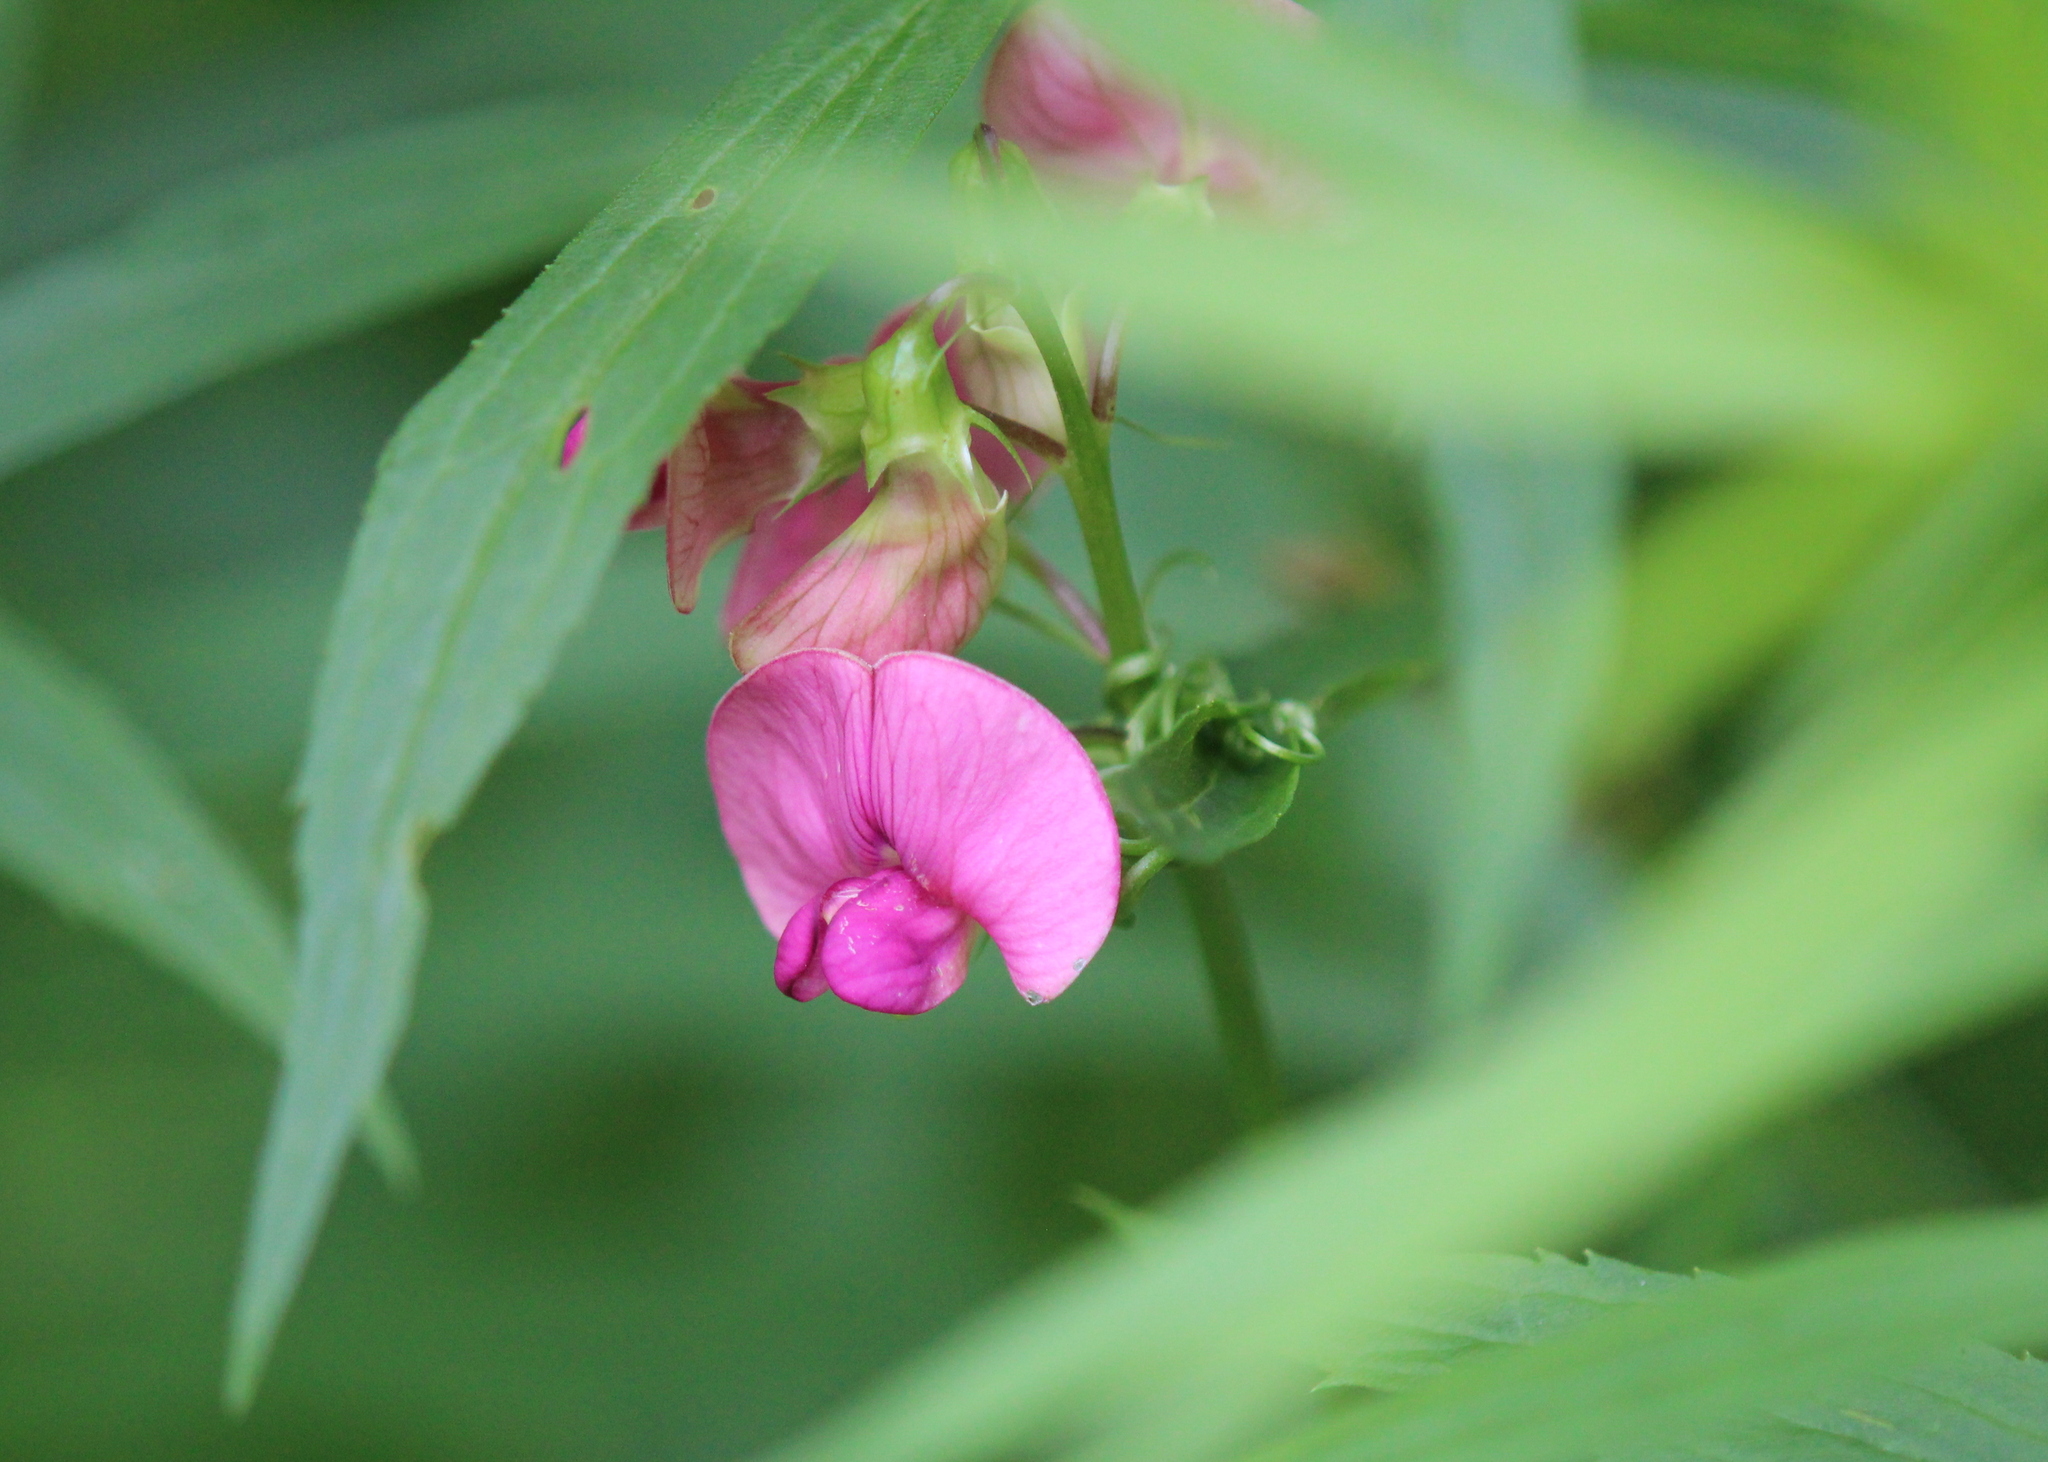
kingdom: Plantae
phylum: Tracheophyta
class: Magnoliopsida
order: Fabales
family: Fabaceae
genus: Lathyrus
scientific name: Lathyrus sylvestris
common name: Flat pea
